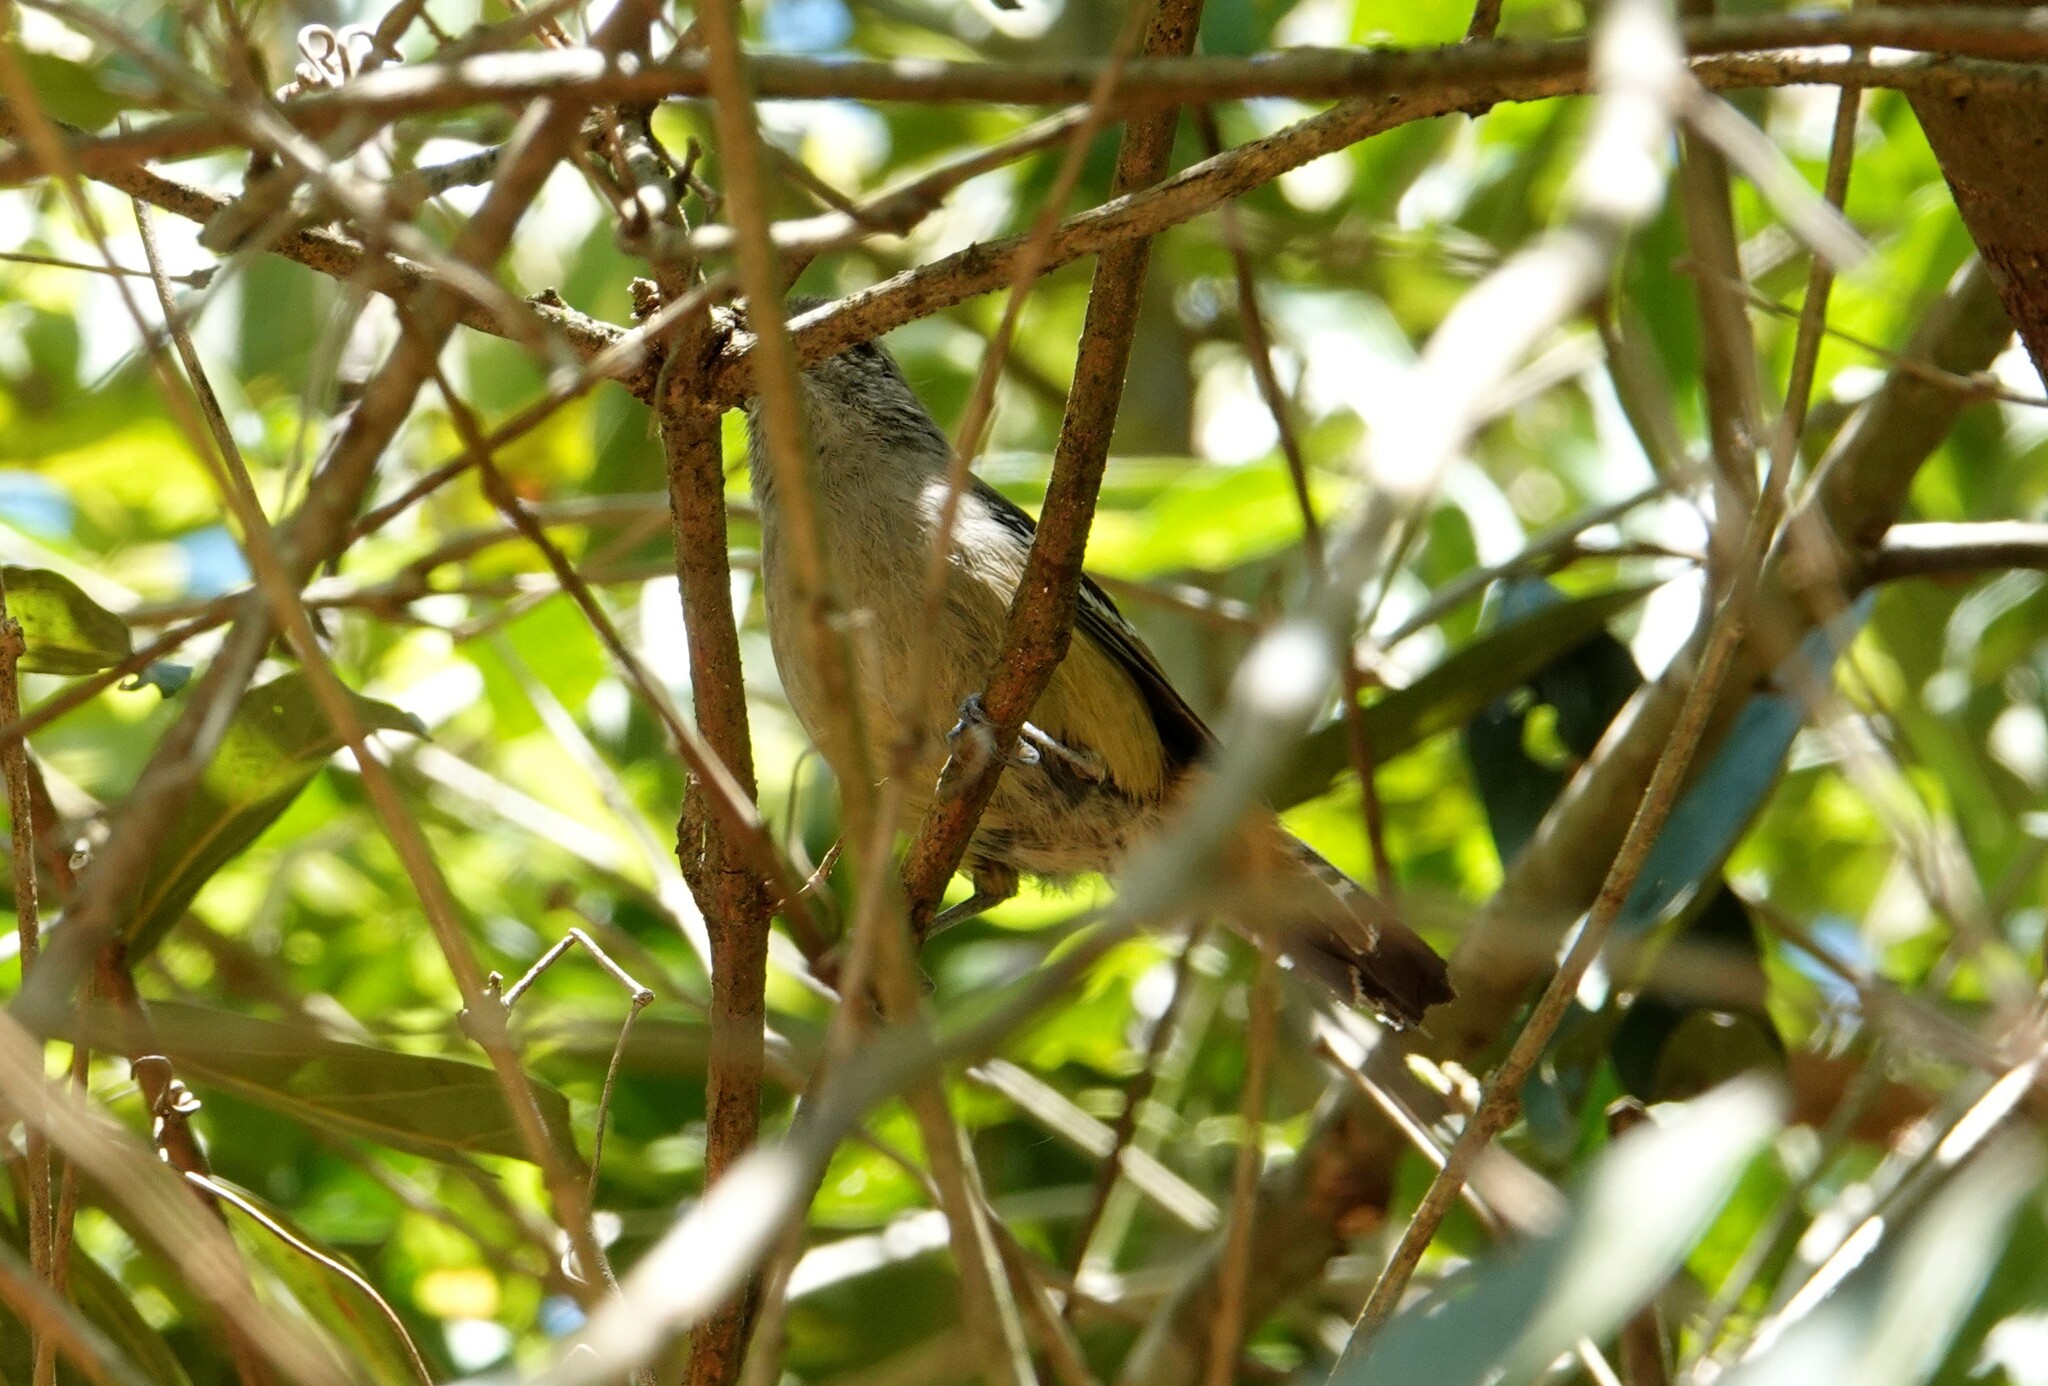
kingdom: Animalia
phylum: Chordata
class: Aves
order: Passeriformes
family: Thamnophilidae
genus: Thamnophilus
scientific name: Thamnophilus caerulescens
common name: Variable antshrike
